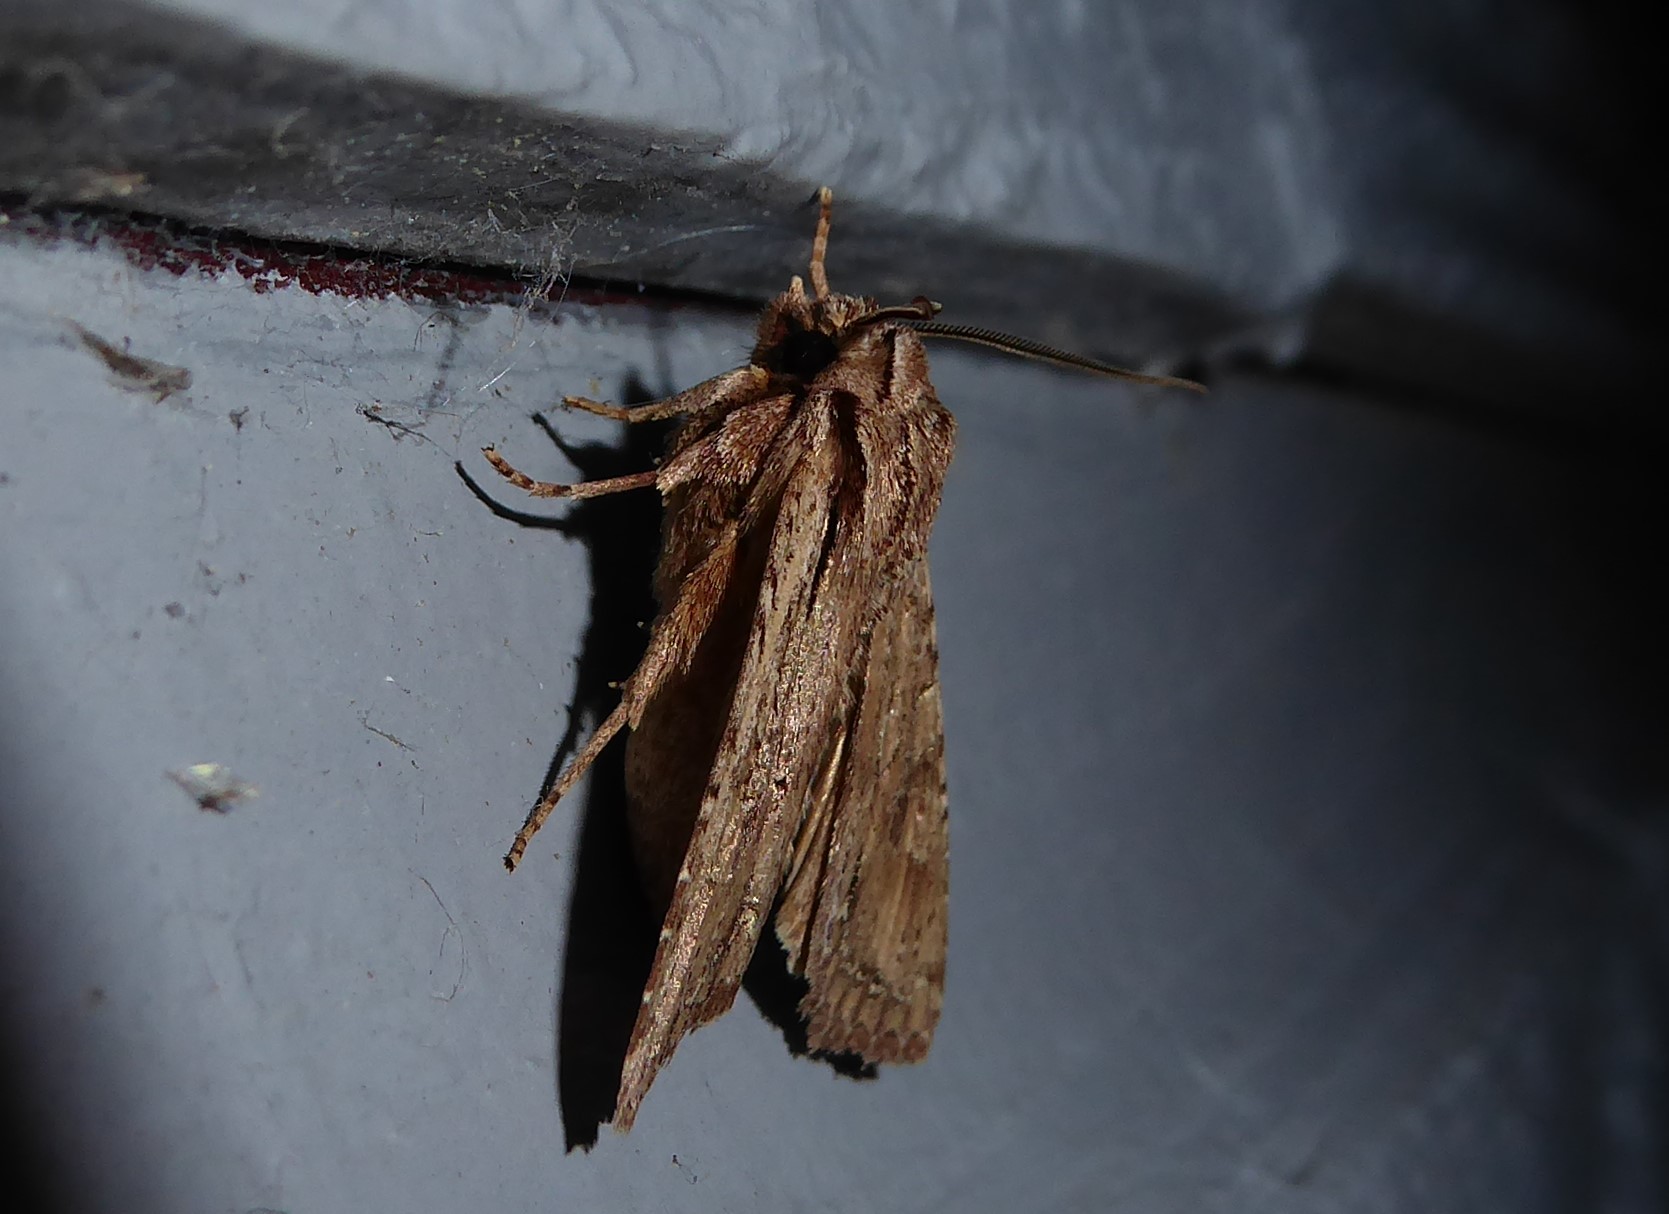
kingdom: Animalia
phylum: Arthropoda
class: Insecta
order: Lepidoptera
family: Noctuidae
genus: Ichneutica
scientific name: Ichneutica
